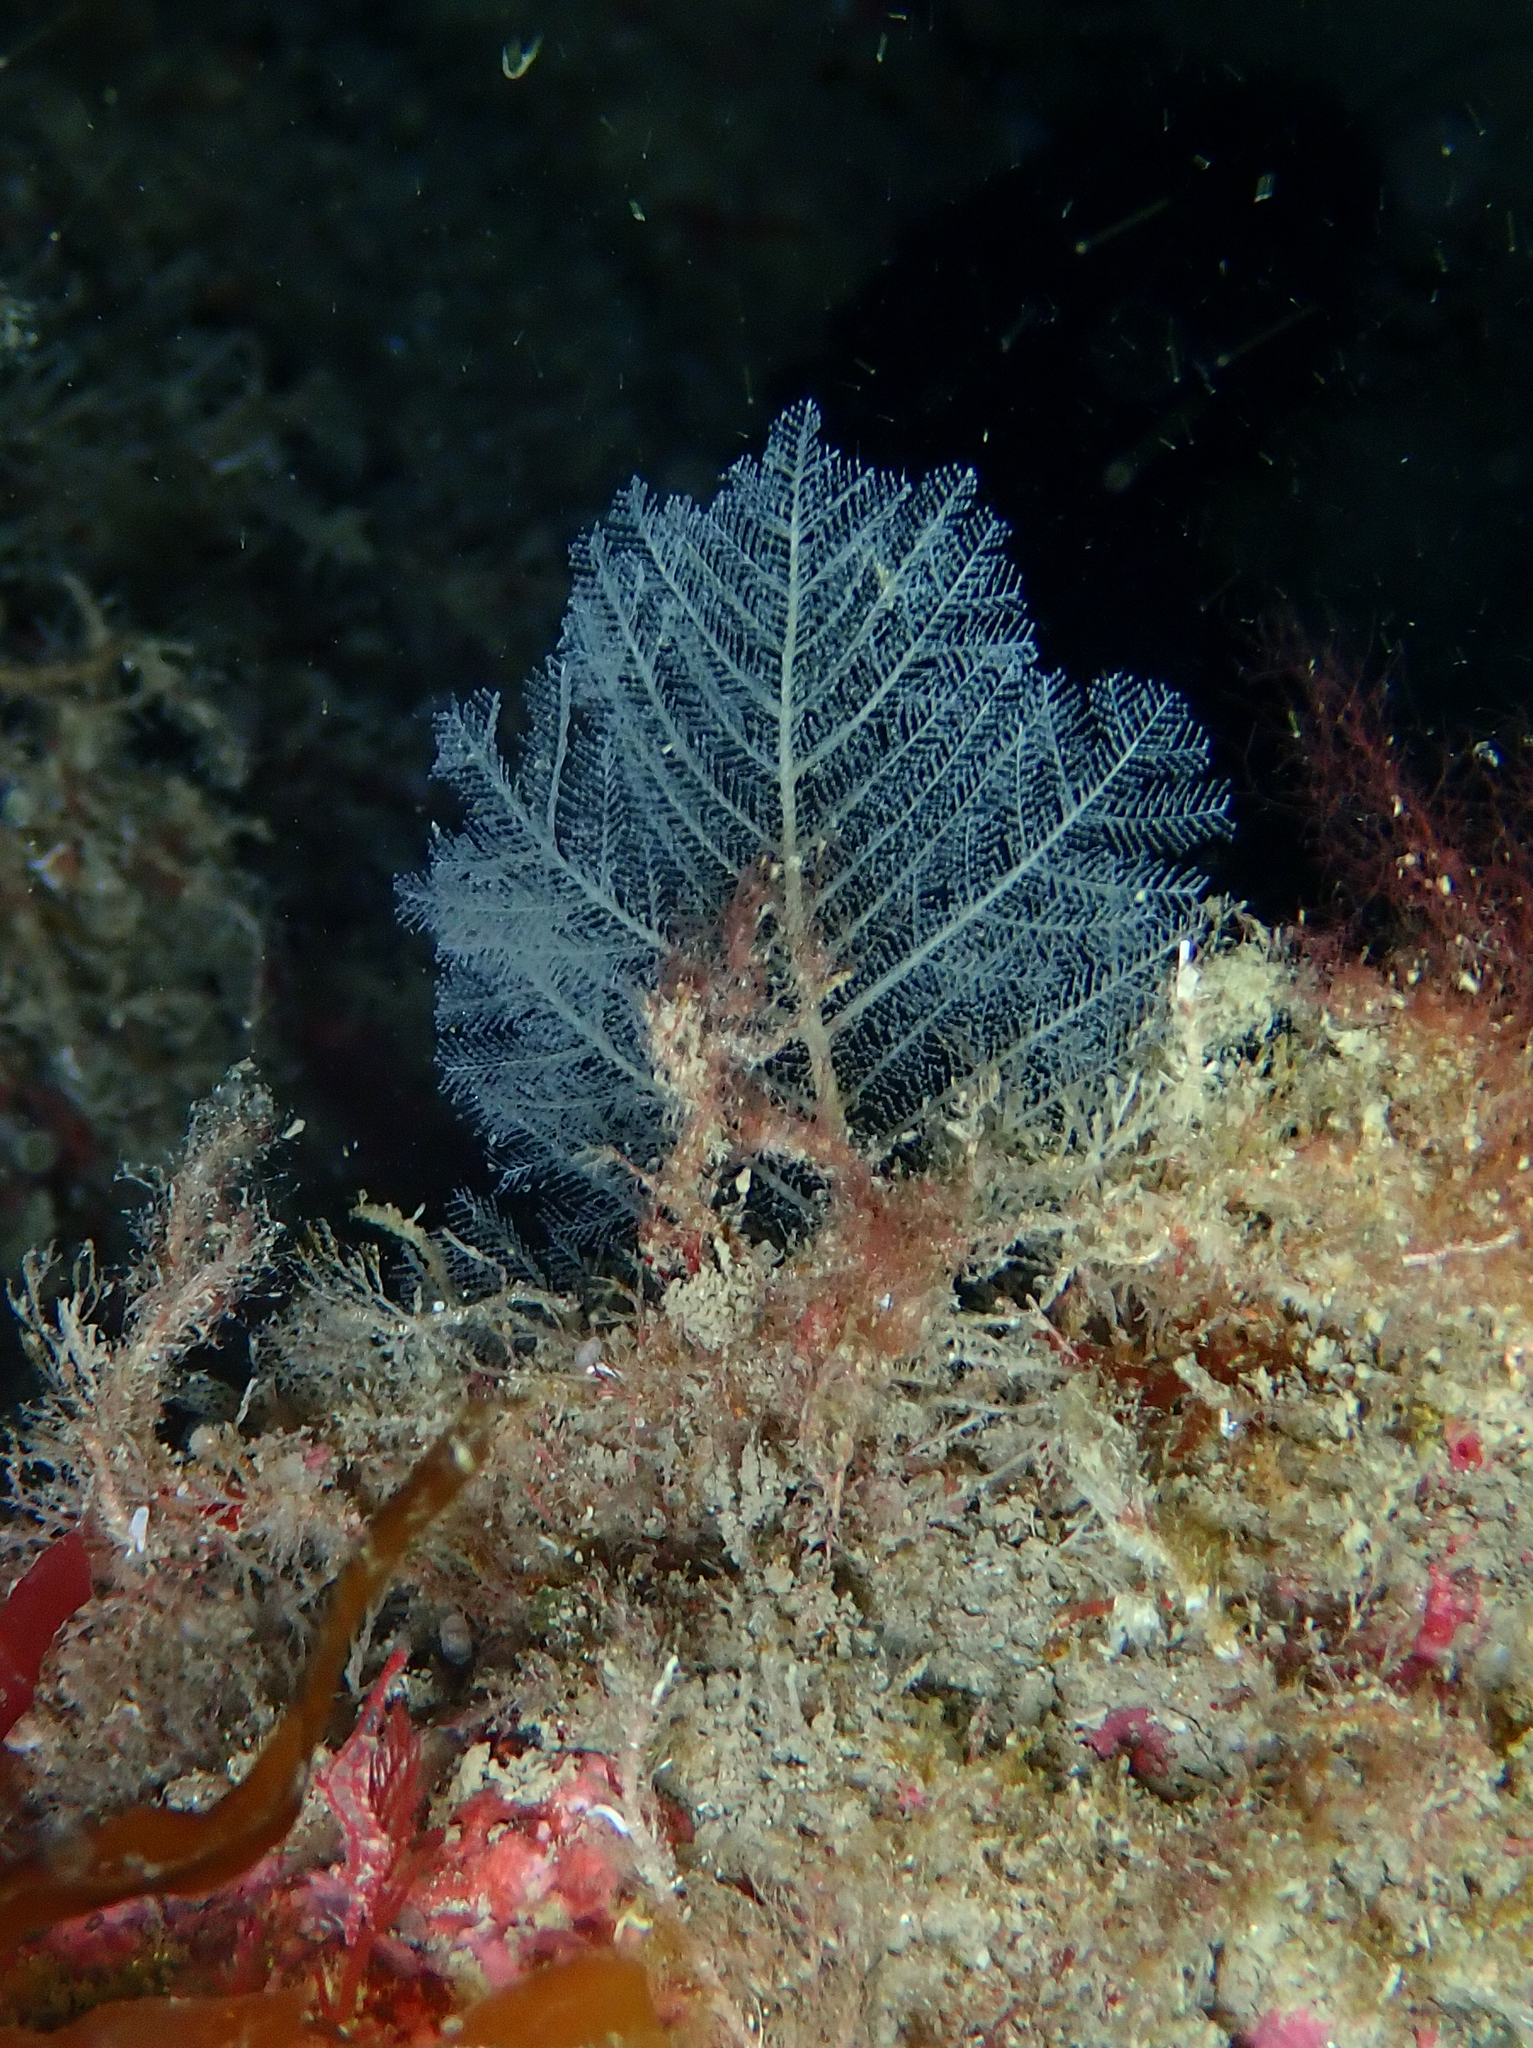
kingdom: Animalia
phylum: Cnidaria
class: Hydrozoa
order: Leptothecata
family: Halopterididae
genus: Polyplumaria
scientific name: Polyplumaria flabellata
